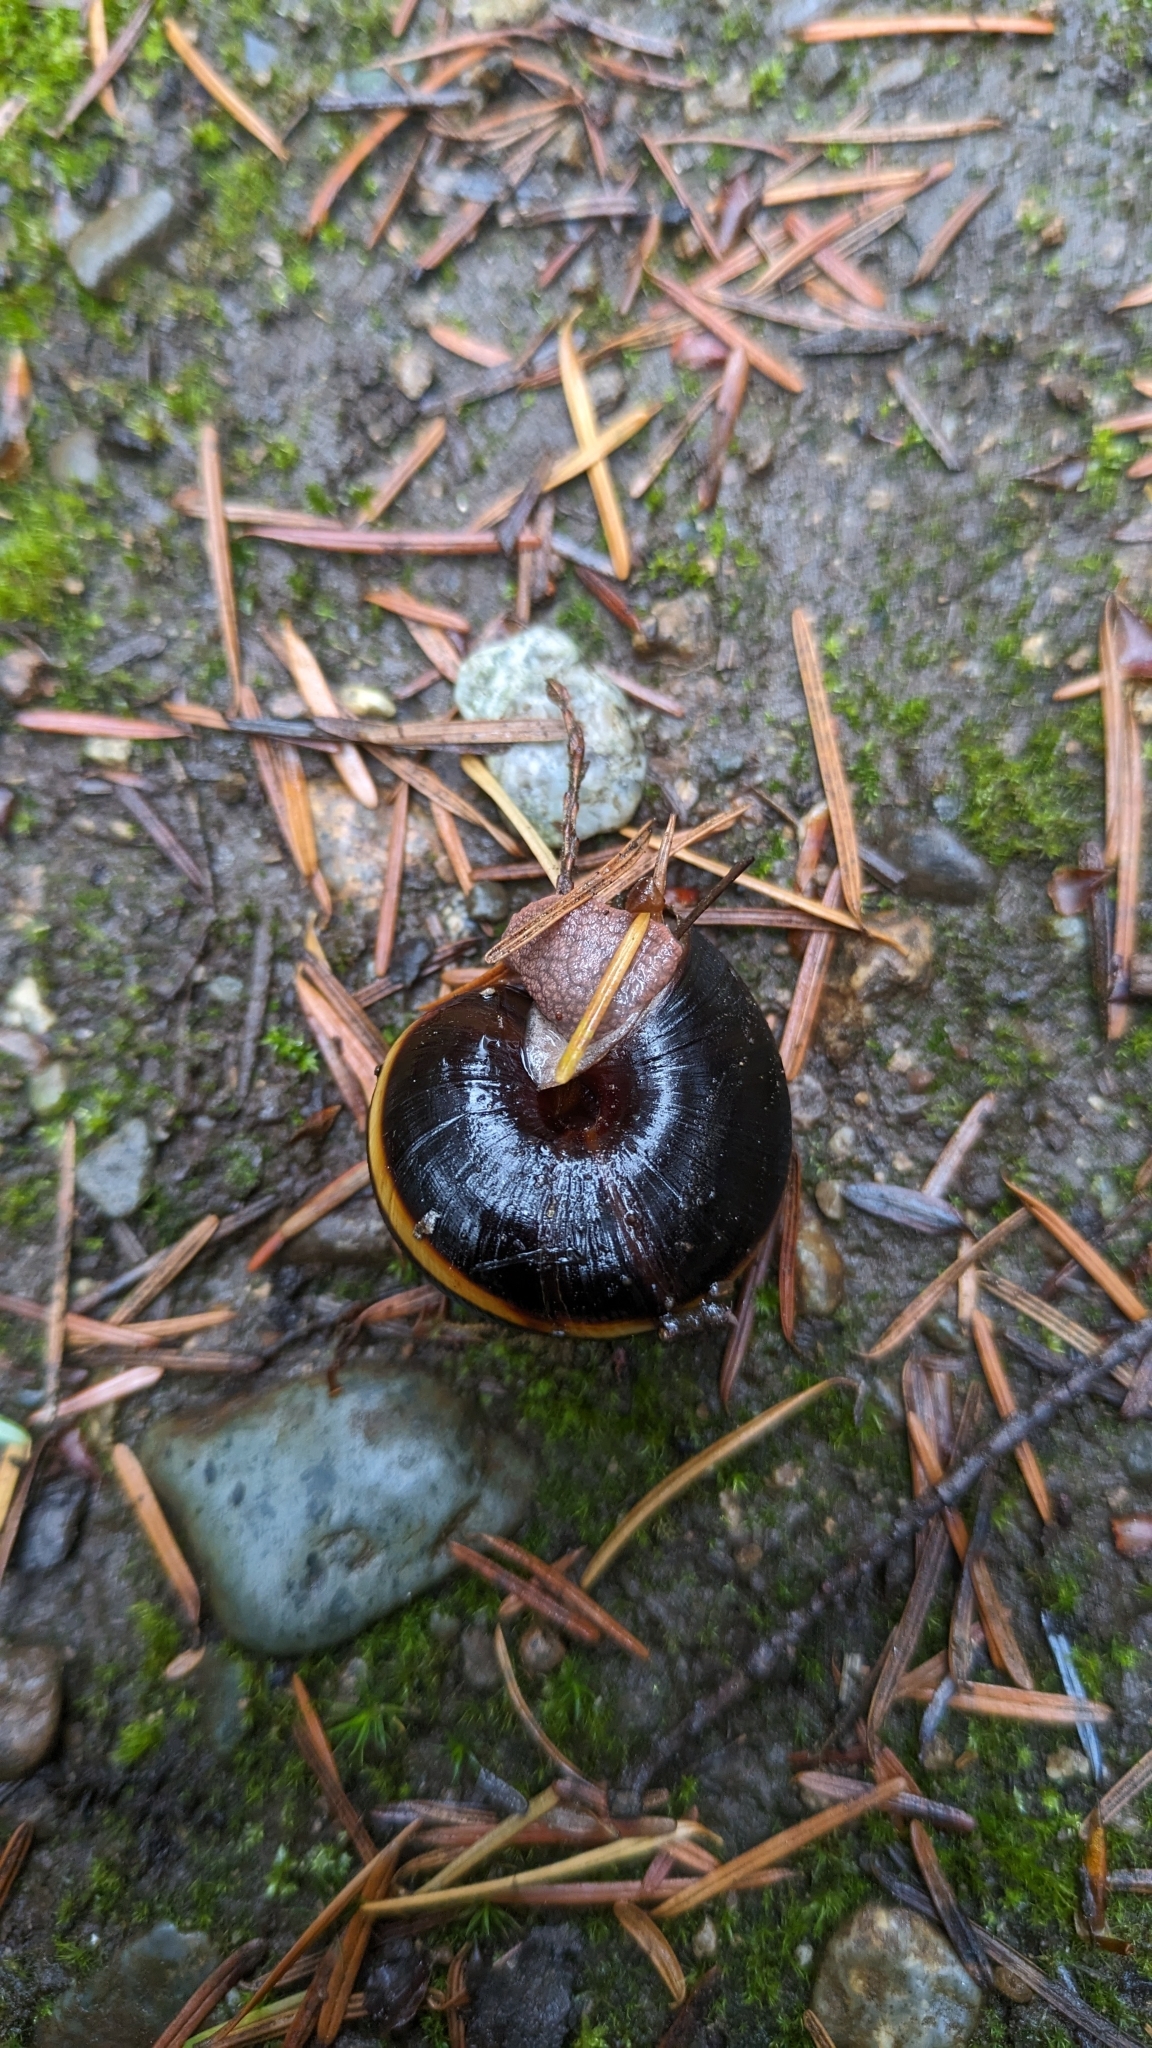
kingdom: Animalia
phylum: Mollusca
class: Gastropoda
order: Stylommatophora
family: Xanthonychidae
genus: Monadenia
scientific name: Monadenia fidelis
